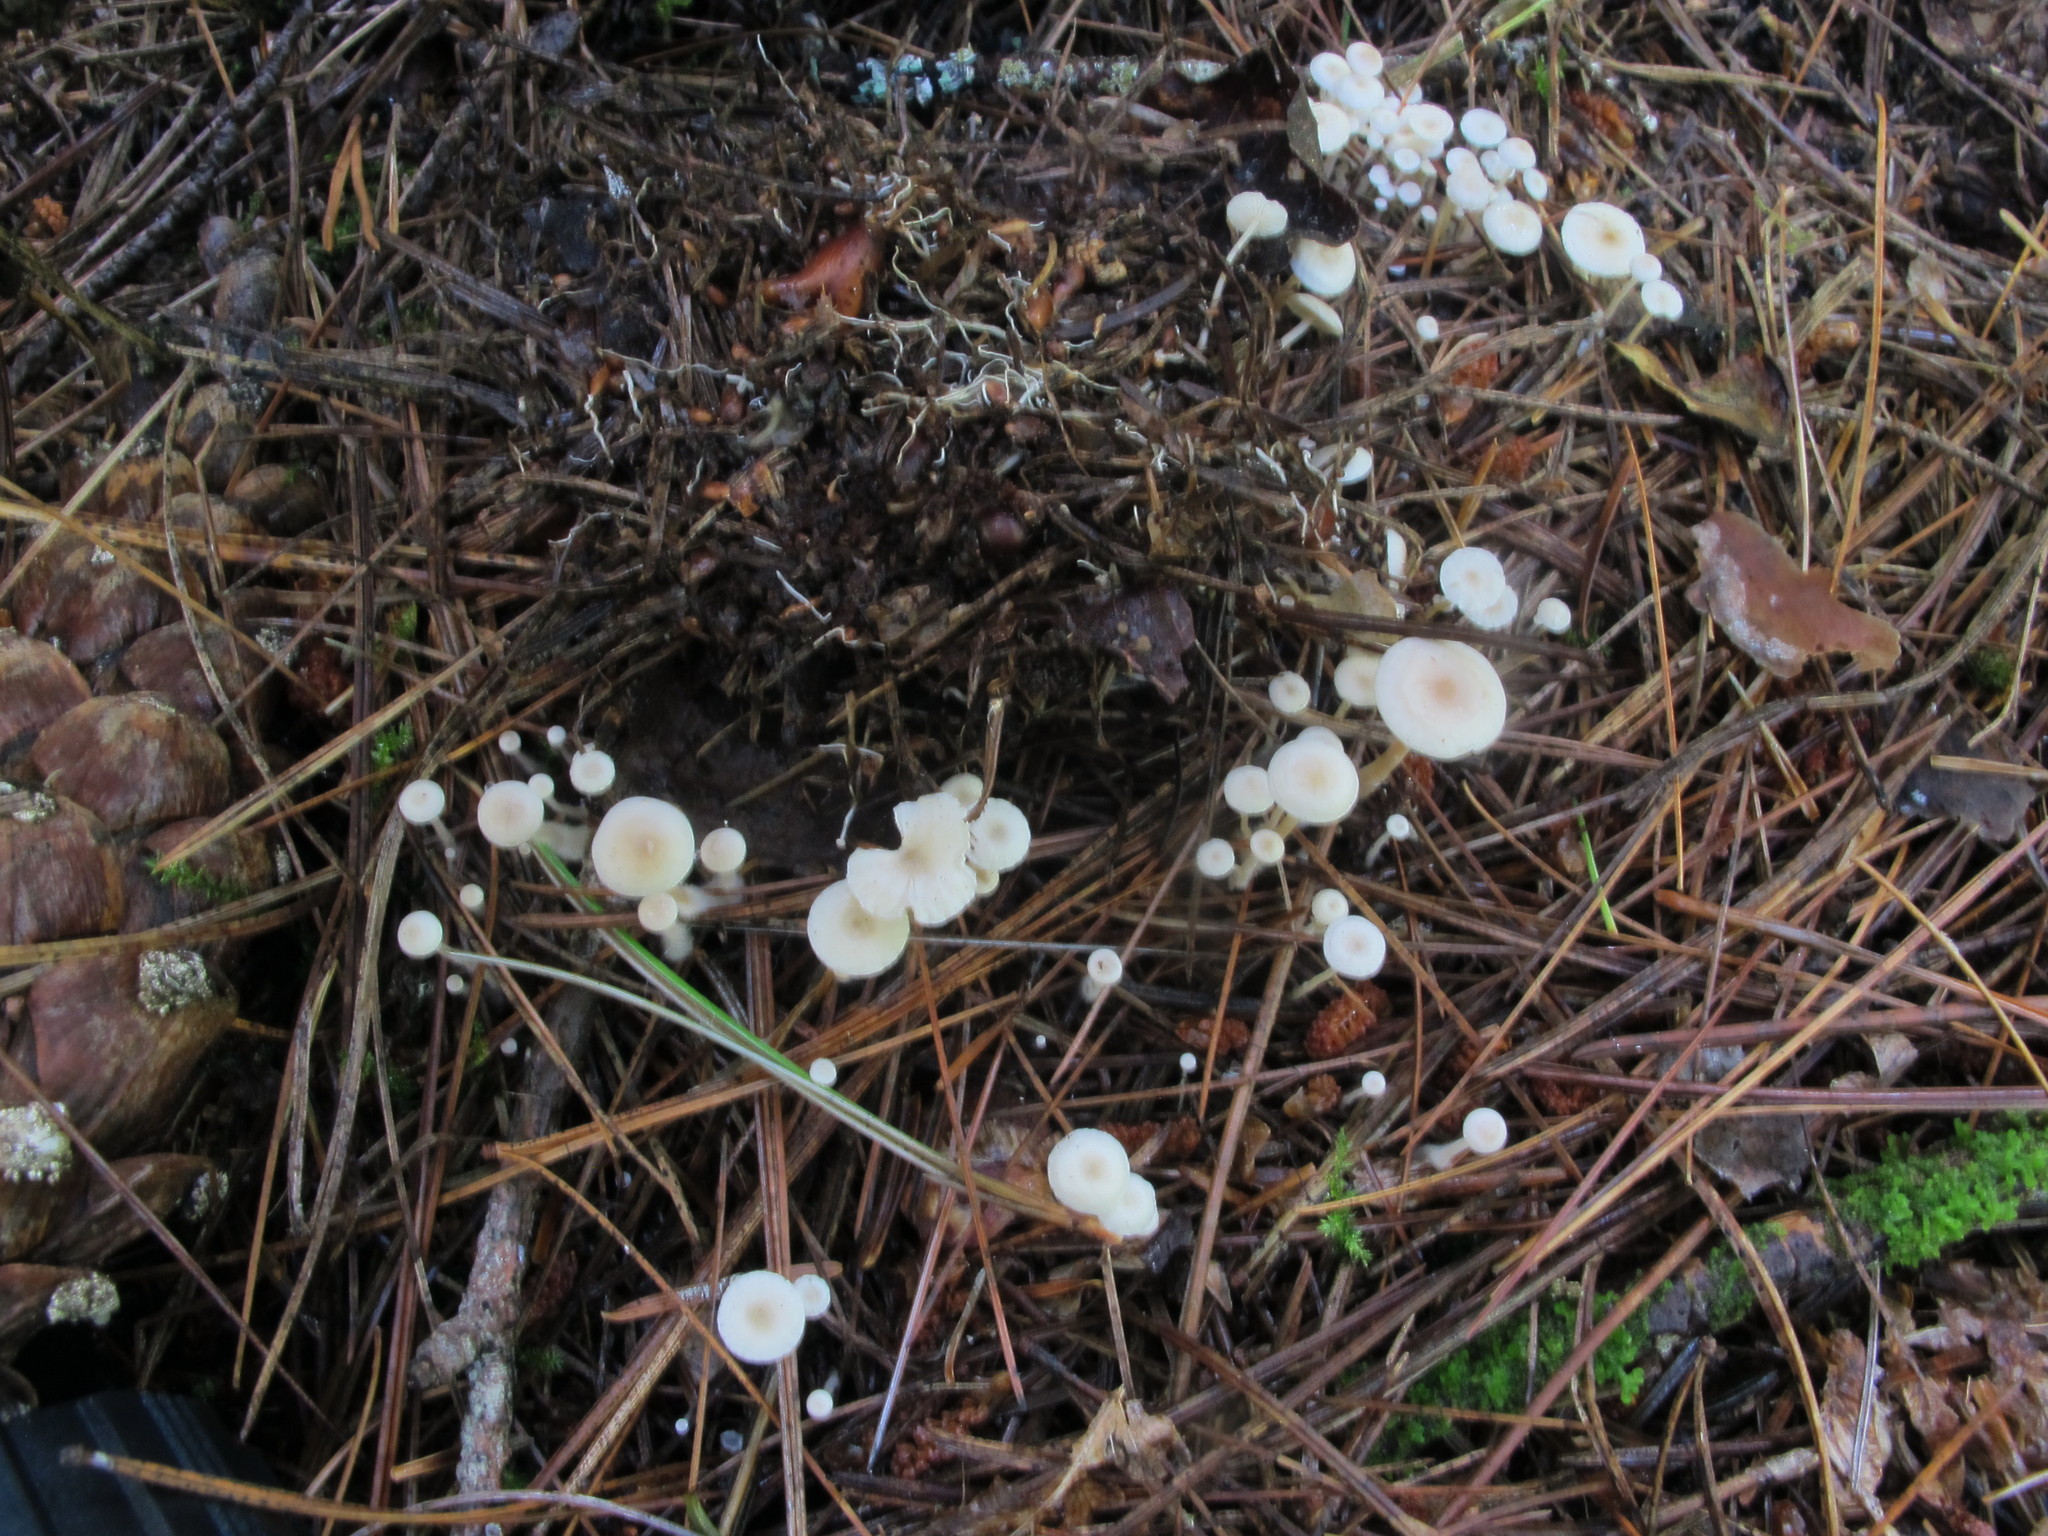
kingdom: Fungi
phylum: Basidiomycota
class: Agaricomycetes
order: Agaricales
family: Tricholomataceae
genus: Collybia
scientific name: Collybia tuberosa
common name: Lentil shanklet
